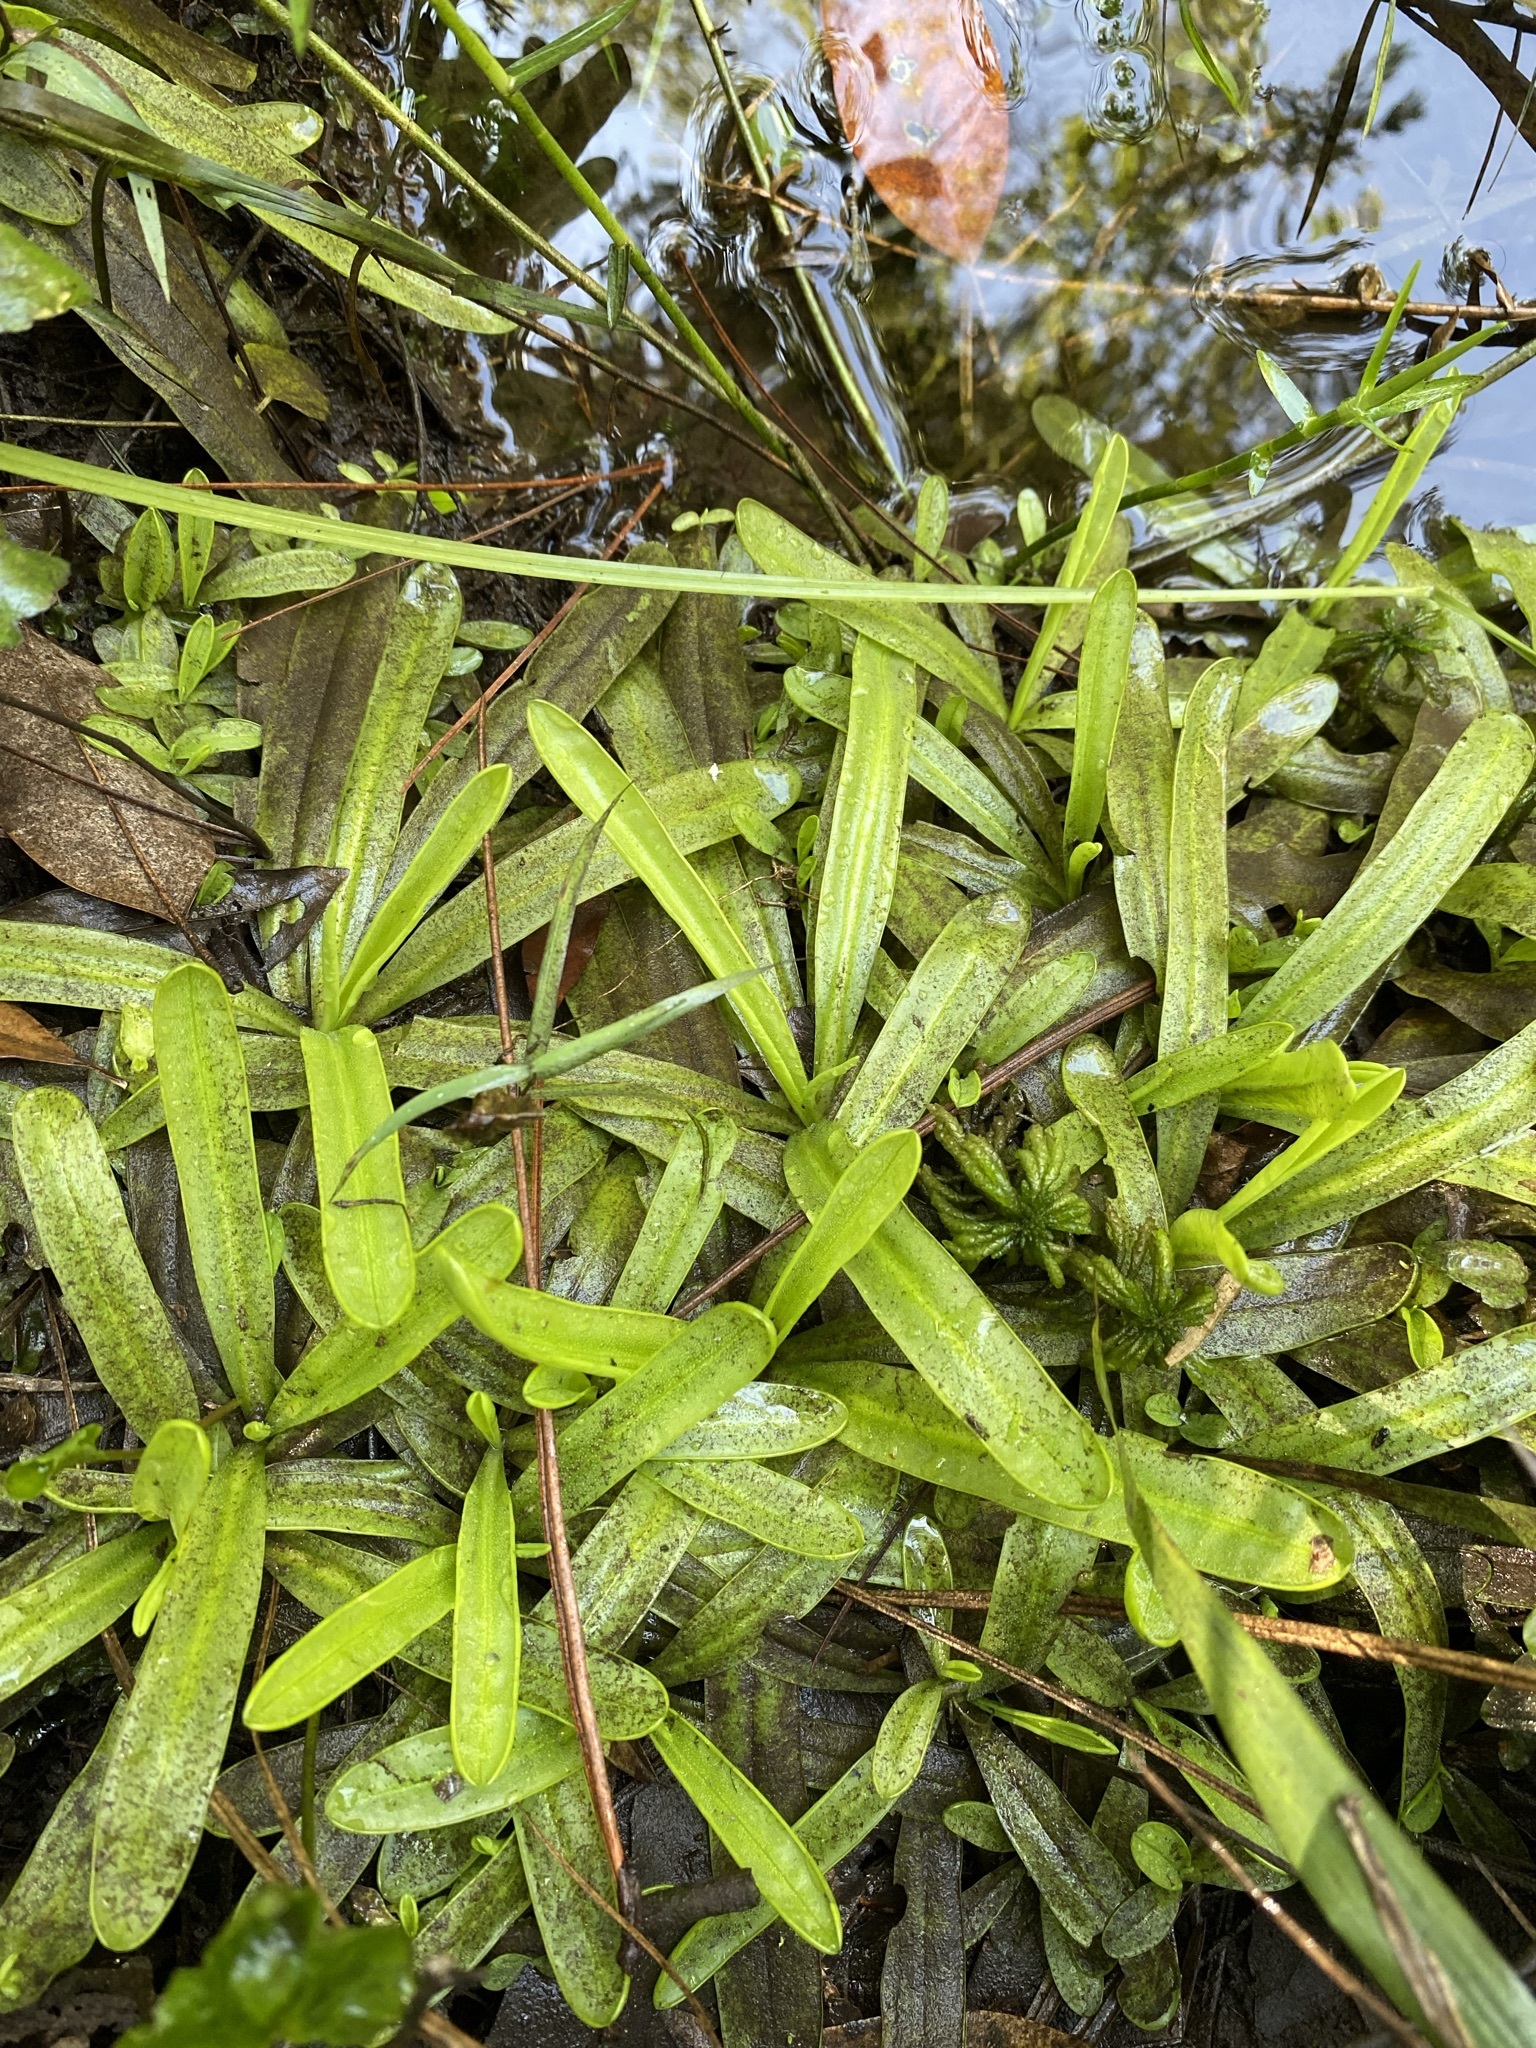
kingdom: Plantae
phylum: Tracheophyta
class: Magnoliopsida
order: Lamiales
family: Lentibulariaceae
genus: Pinguicula
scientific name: Pinguicula primuliflora
